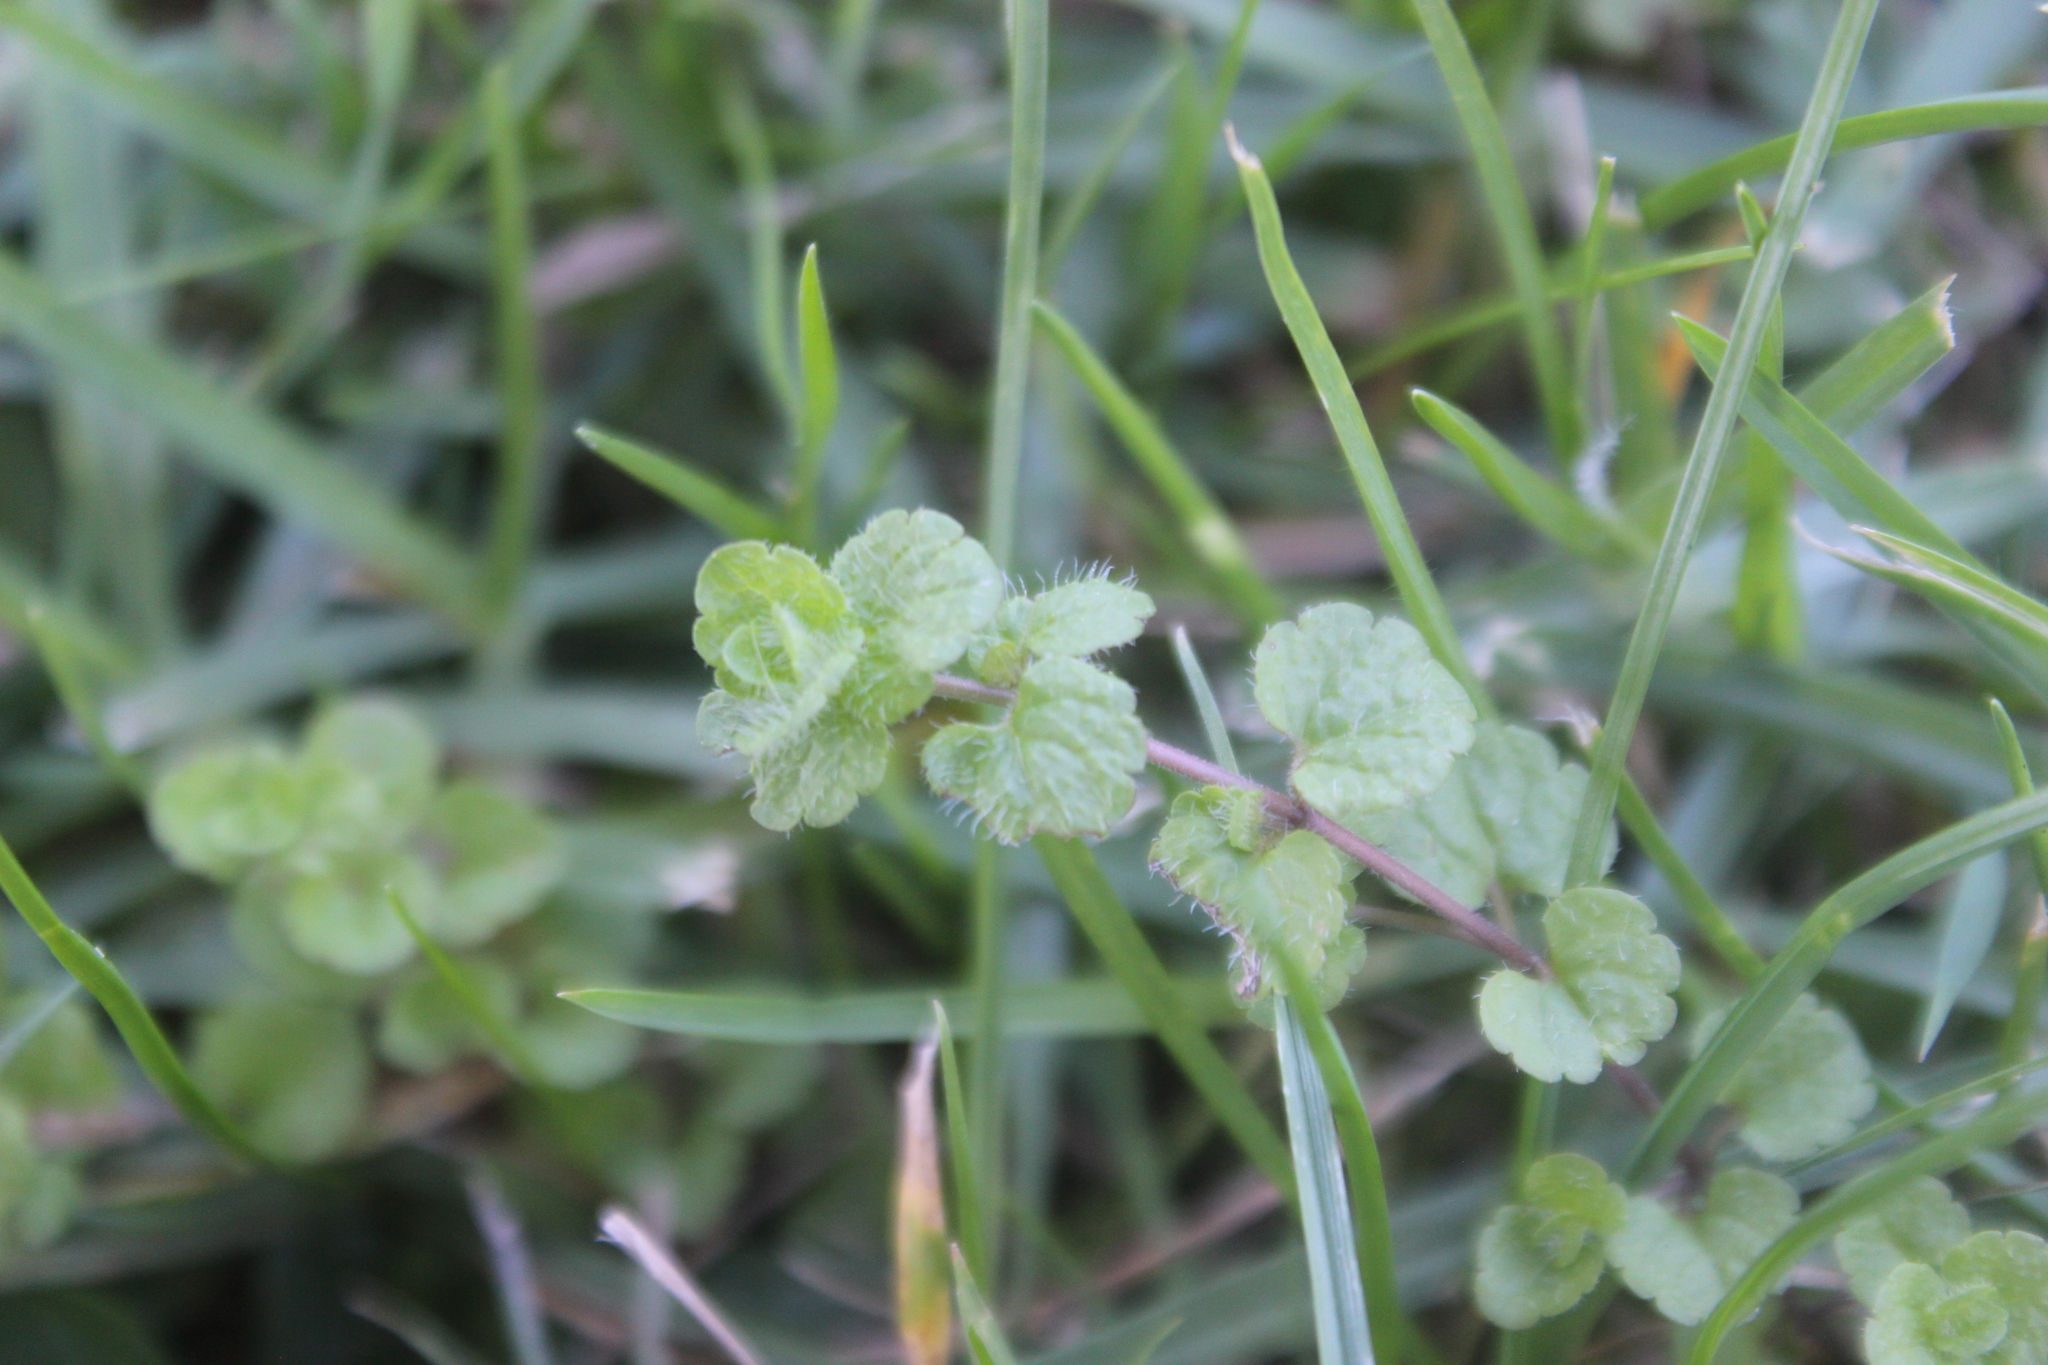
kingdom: Plantae
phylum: Tracheophyta
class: Magnoliopsida
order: Lamiales
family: Plantaginaceae
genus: Veronica
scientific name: Veronica filiformis
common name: Slender speedwell
